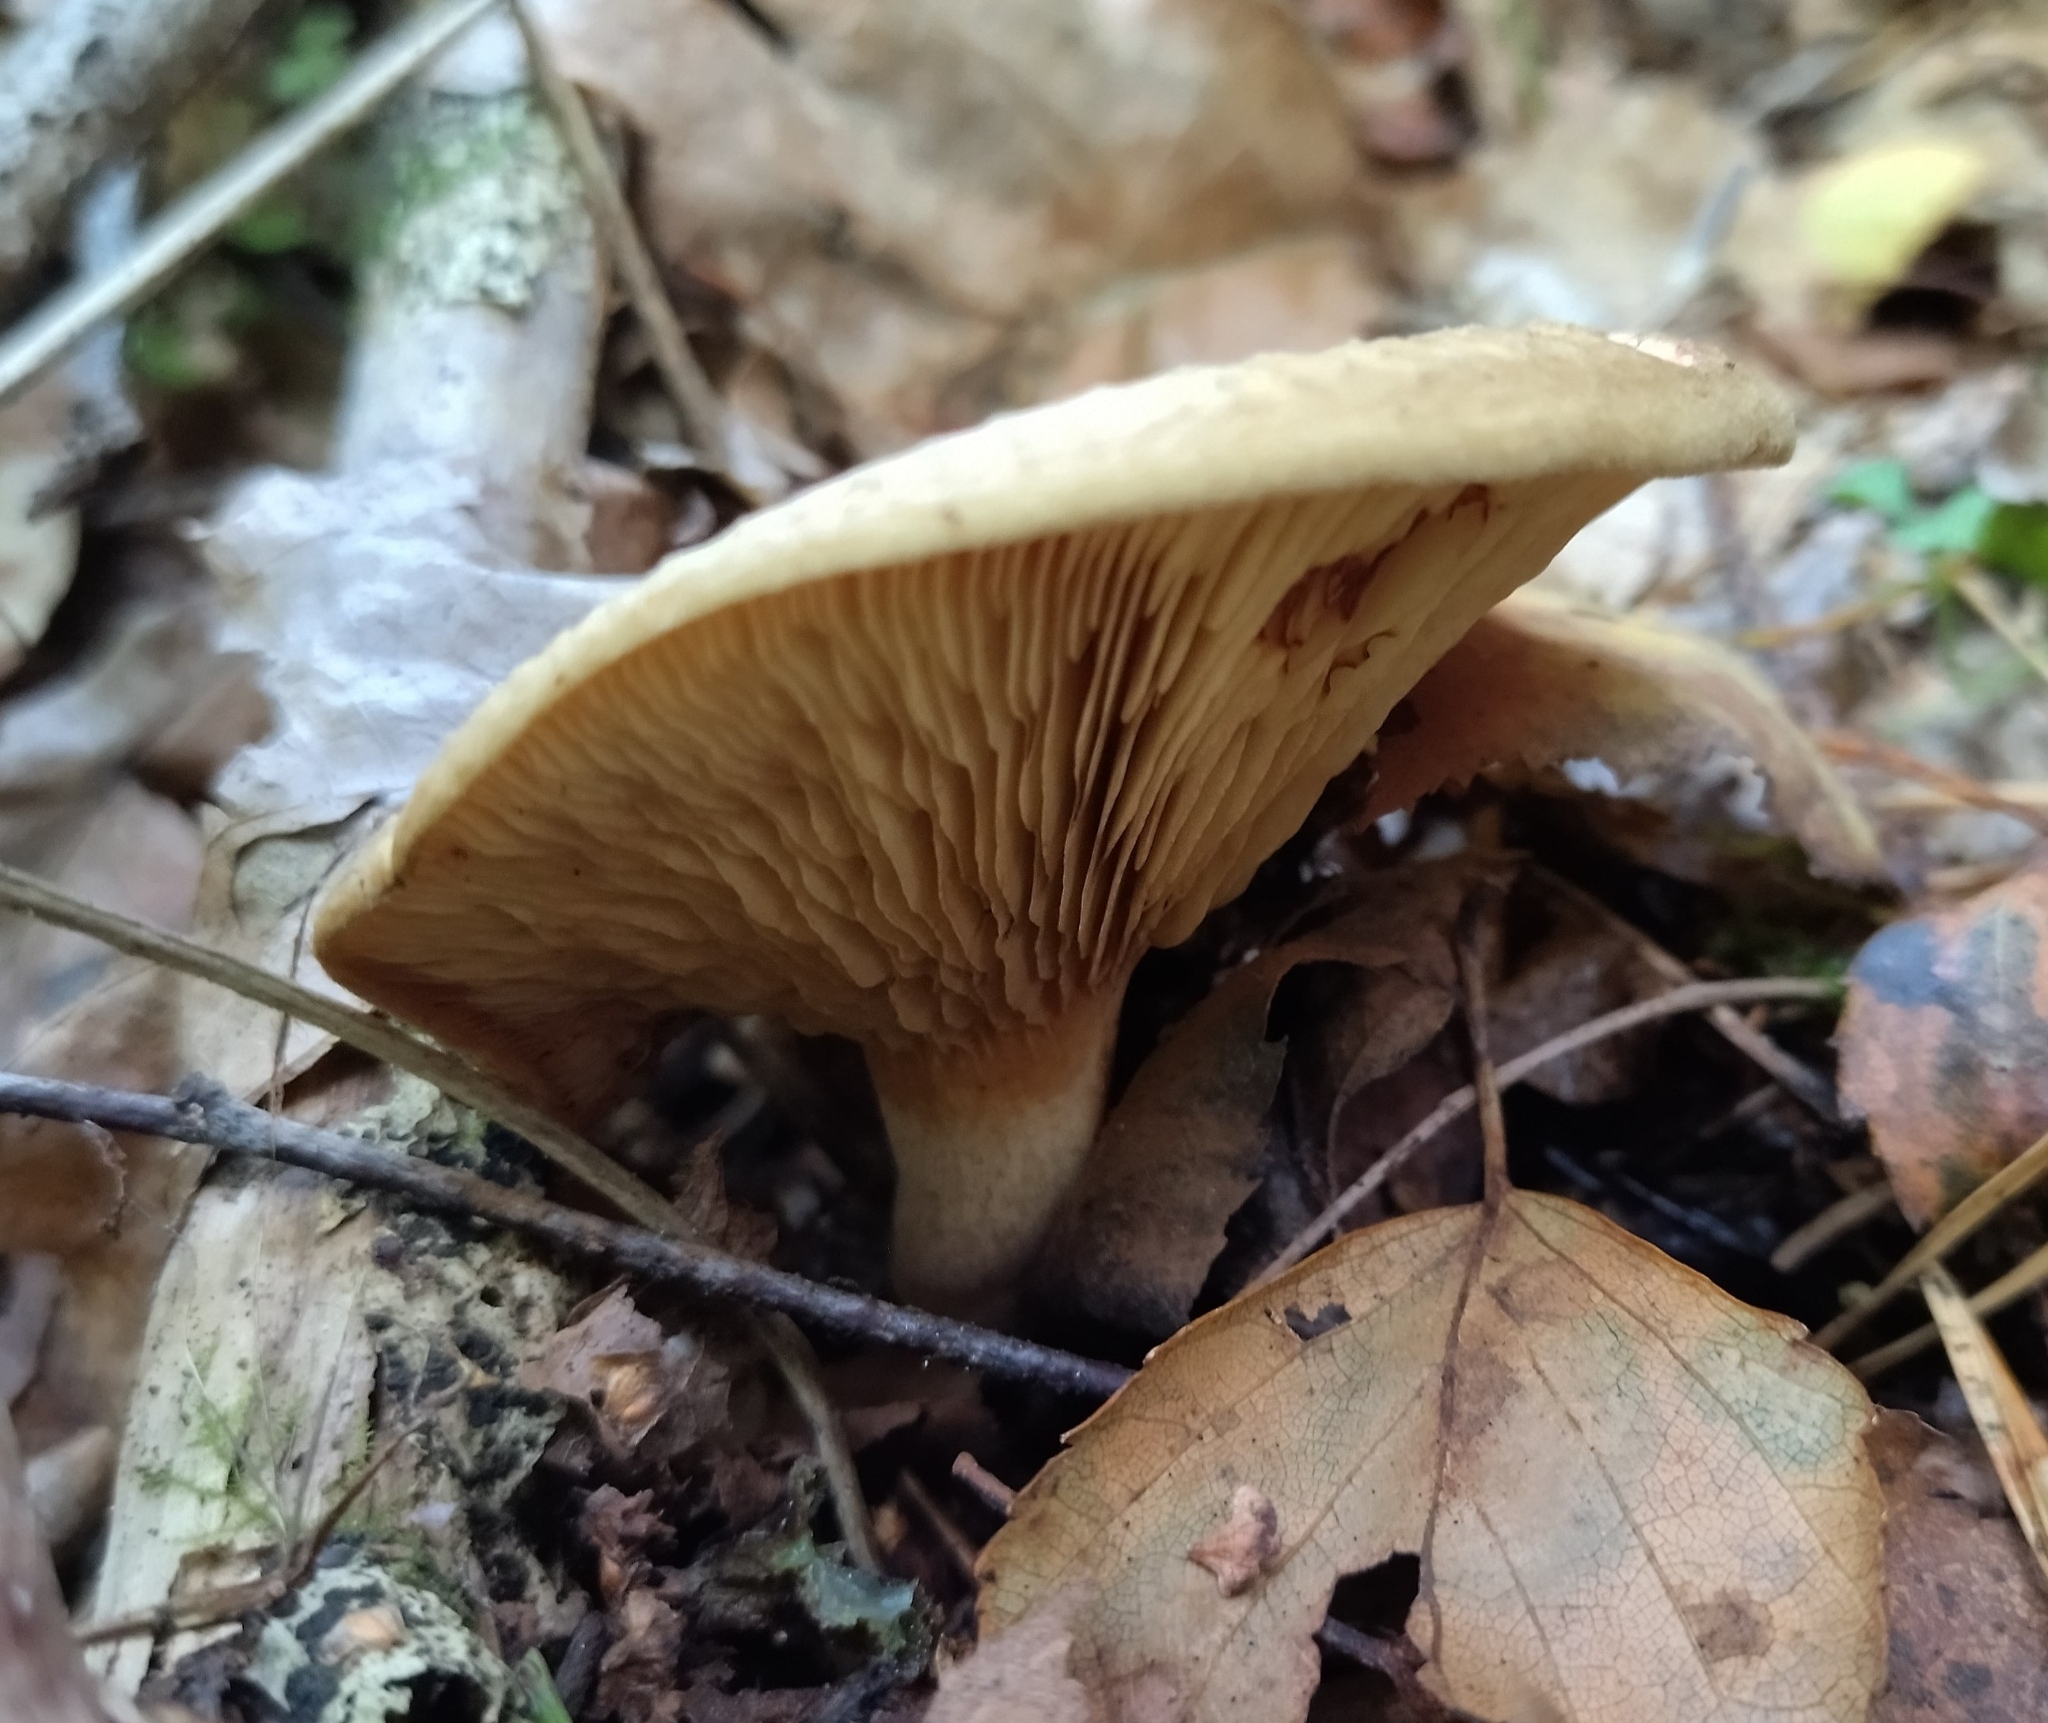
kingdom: Fungi
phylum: Basidiomycota
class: Agaricomycetes
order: Boletales
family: Paxillaceae
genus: Paxillus
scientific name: Paxillus involutus
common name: Brown roll rim
